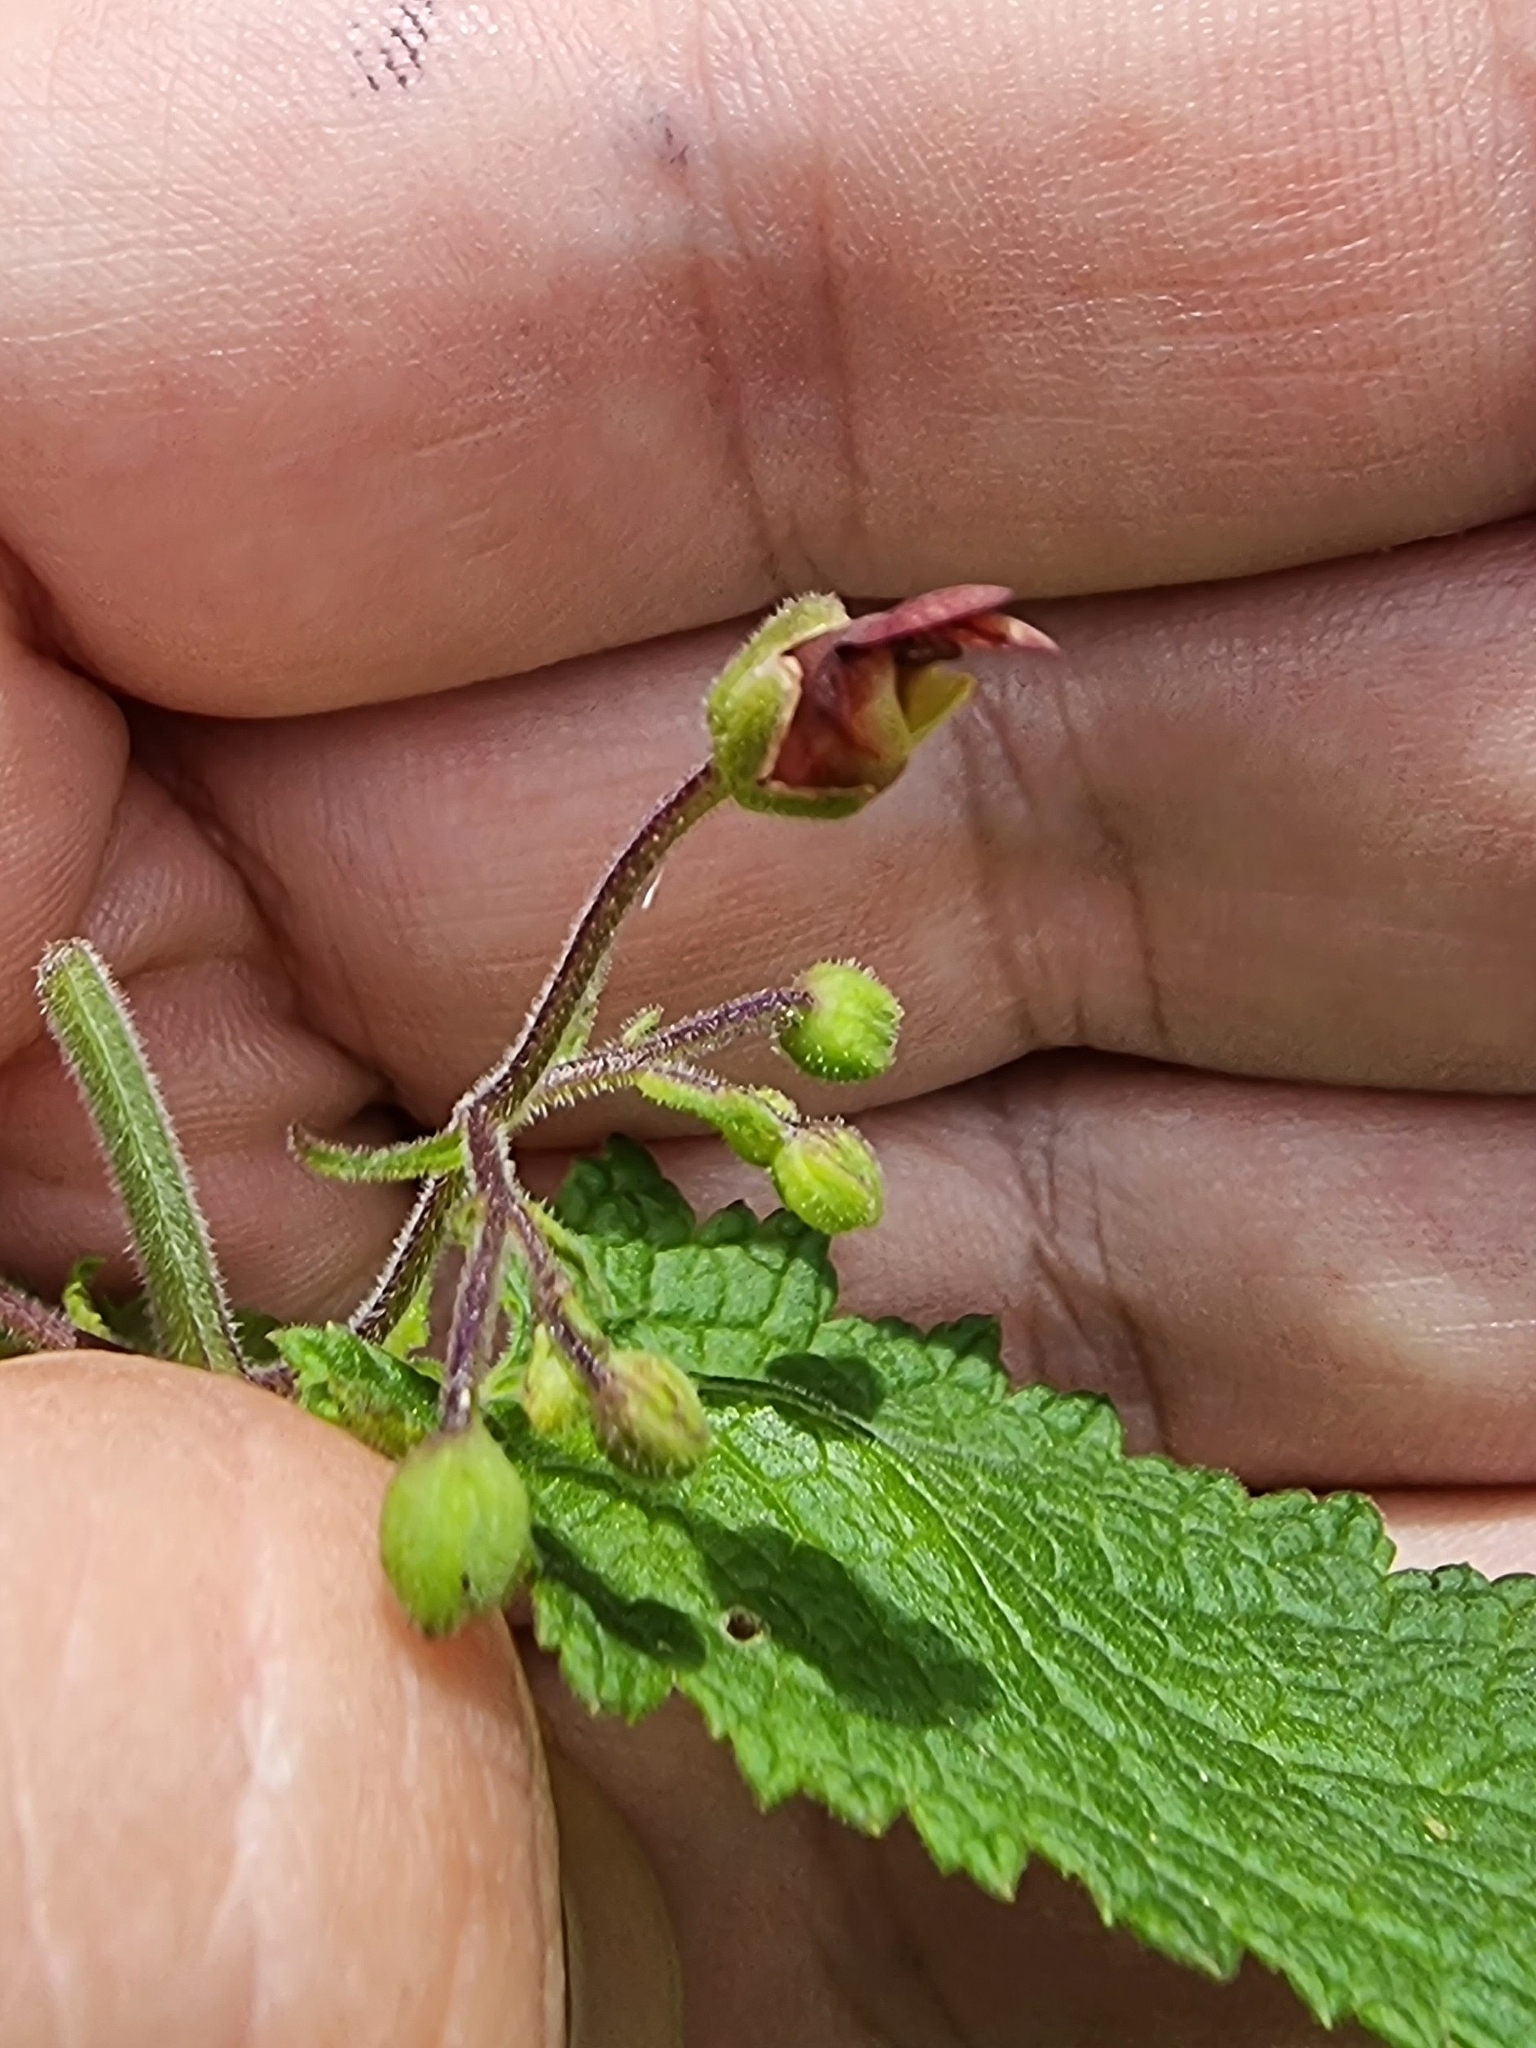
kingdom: Plantae
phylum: Tracheophyta
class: Magnoliopsida
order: Lamiales
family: Scrophulariaceae
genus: Scrophularia
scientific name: Scrophularia hirta
